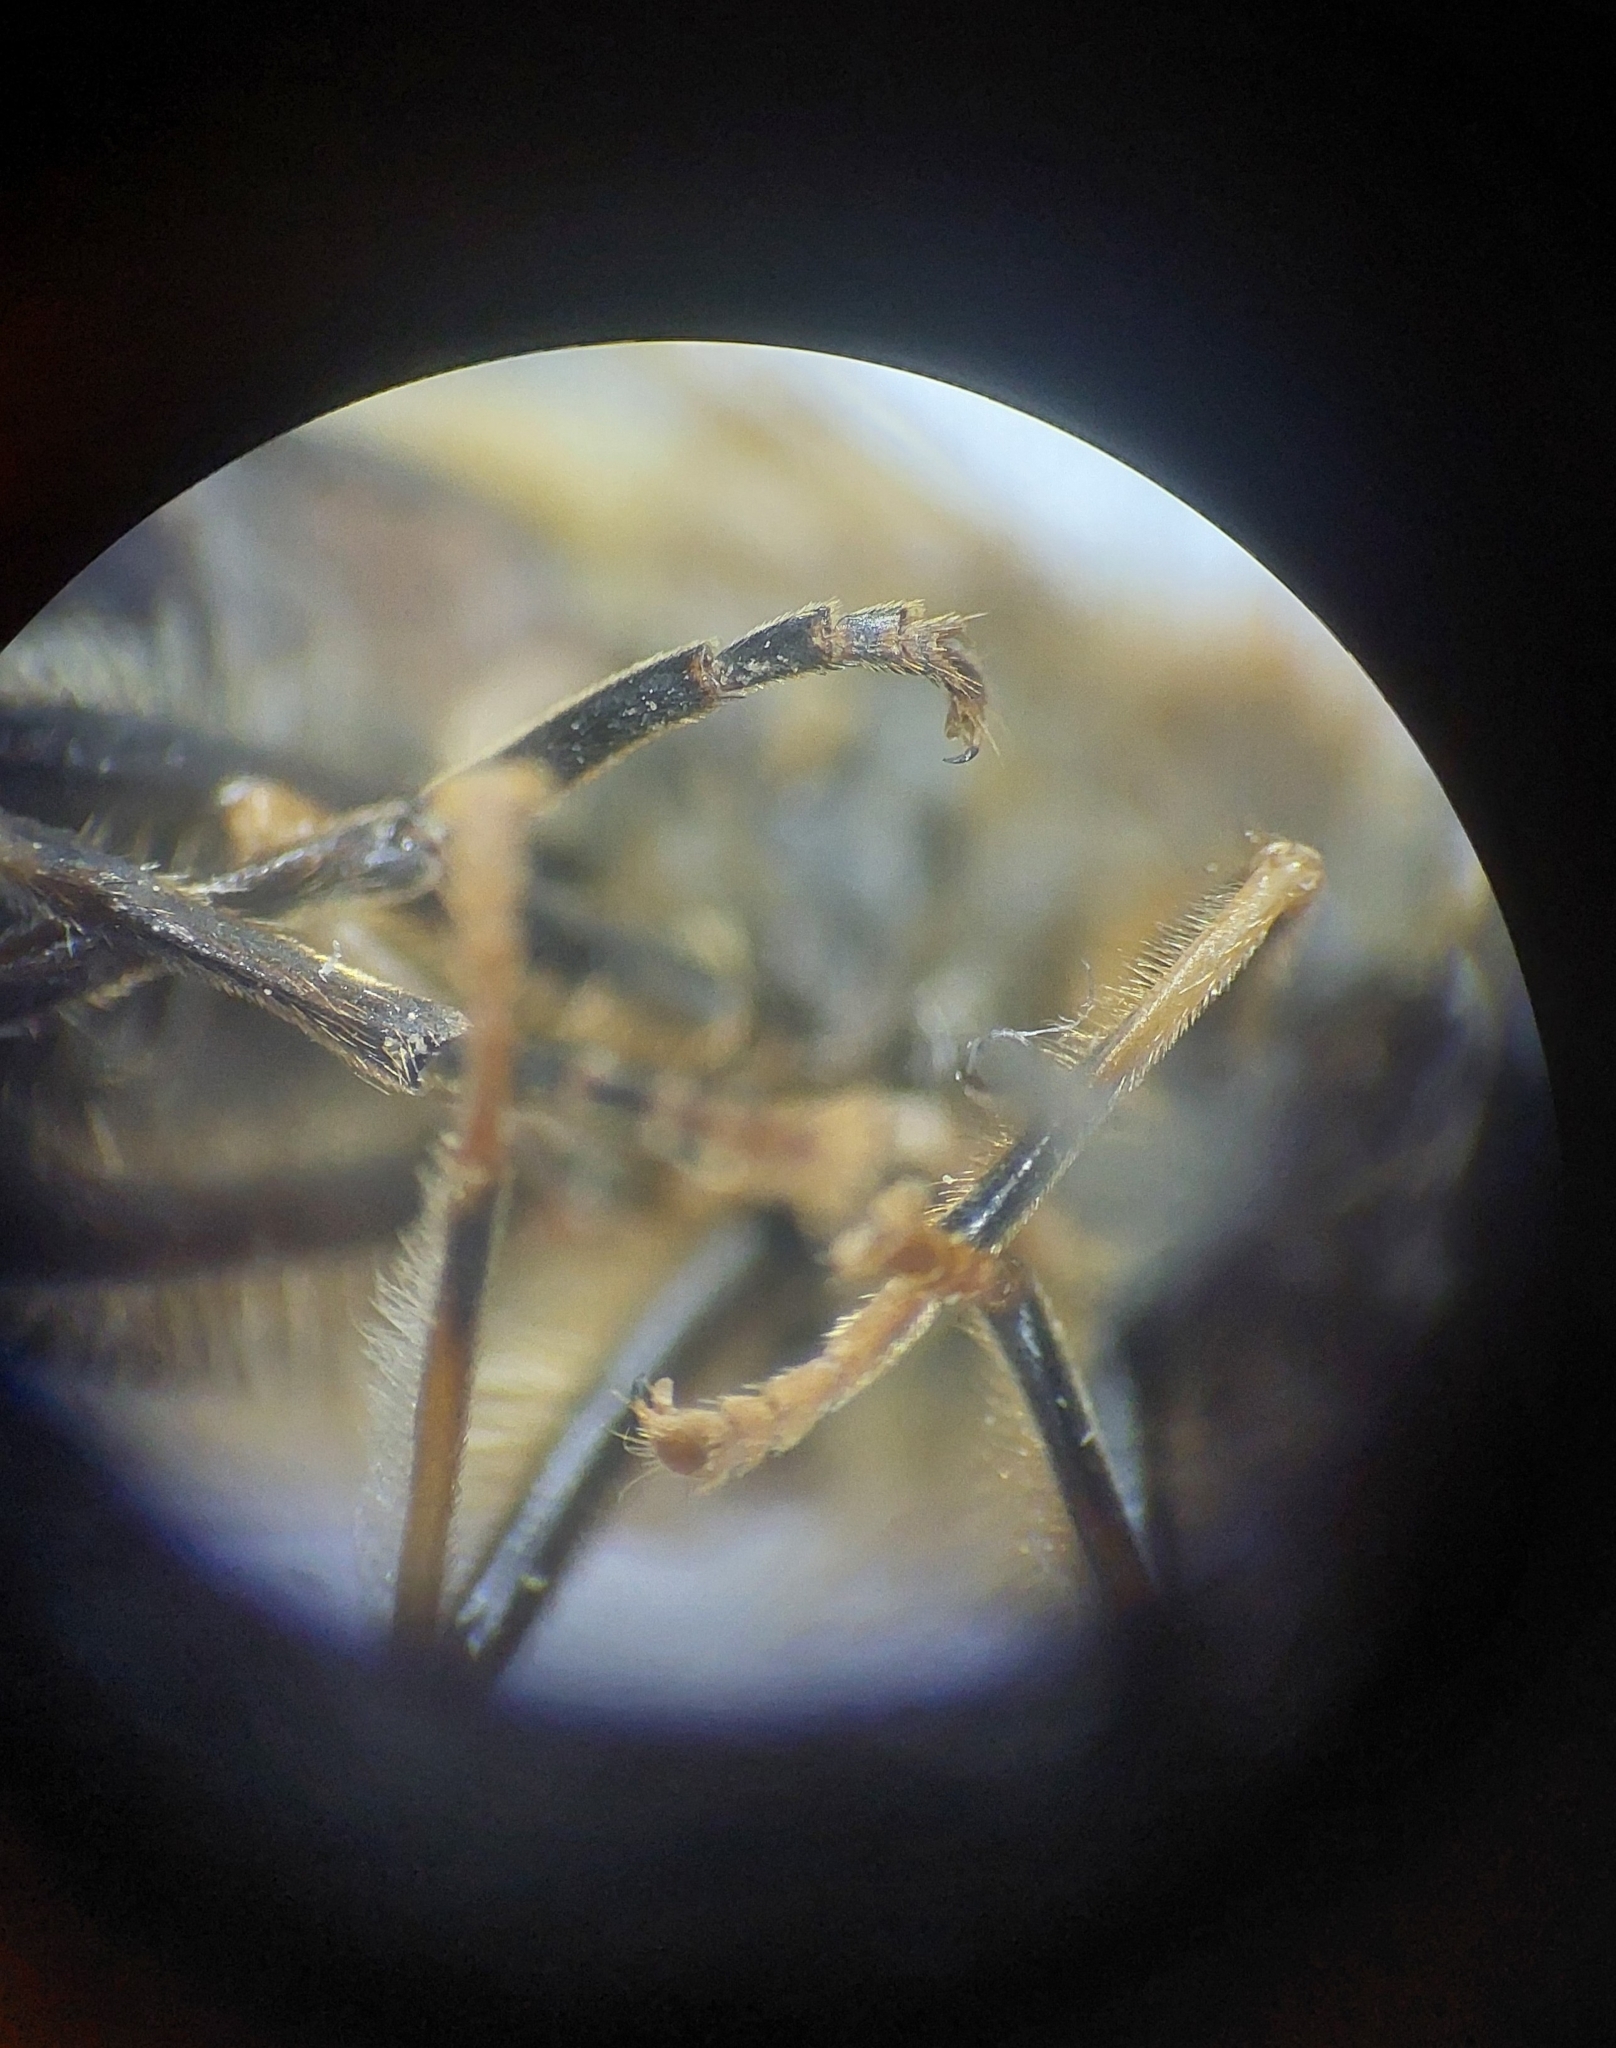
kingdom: Animalia
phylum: Arthropoda
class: Insecta
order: Diptera
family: Syrphidae
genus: Eristalis
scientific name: Eristalis pertinax
